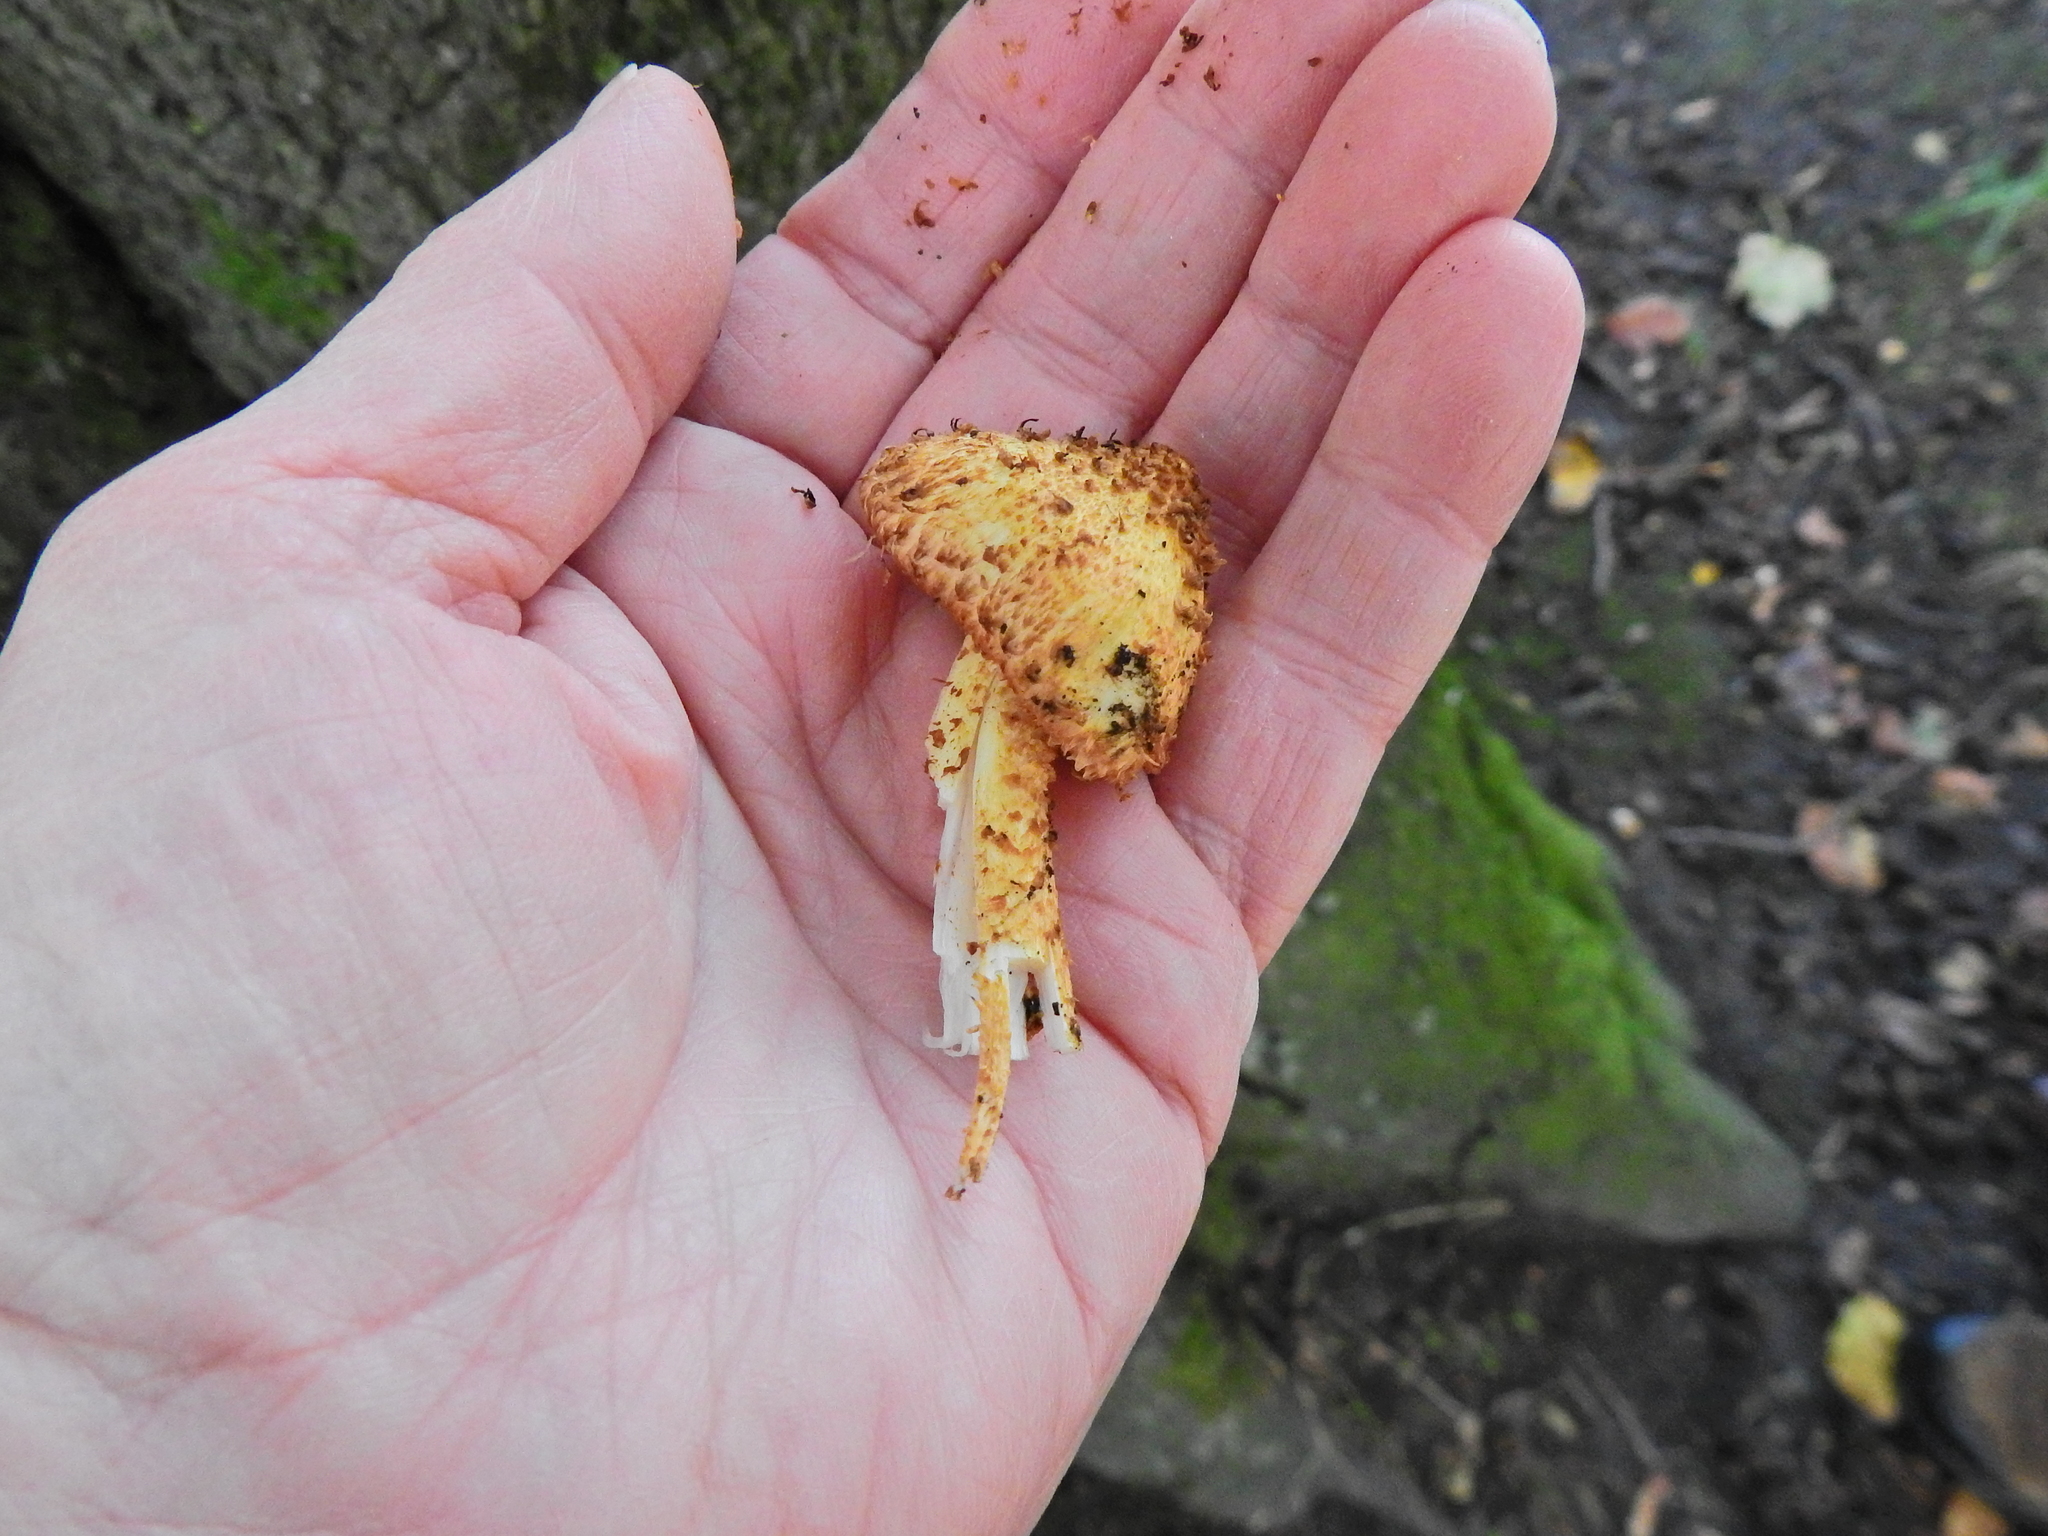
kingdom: Fungi
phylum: Basidiomycota
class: Agaricomycetes
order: Agaricales
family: Strophariaceae
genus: Pholiota
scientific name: Pholiota squarrosa
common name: Shaggy pholiota
